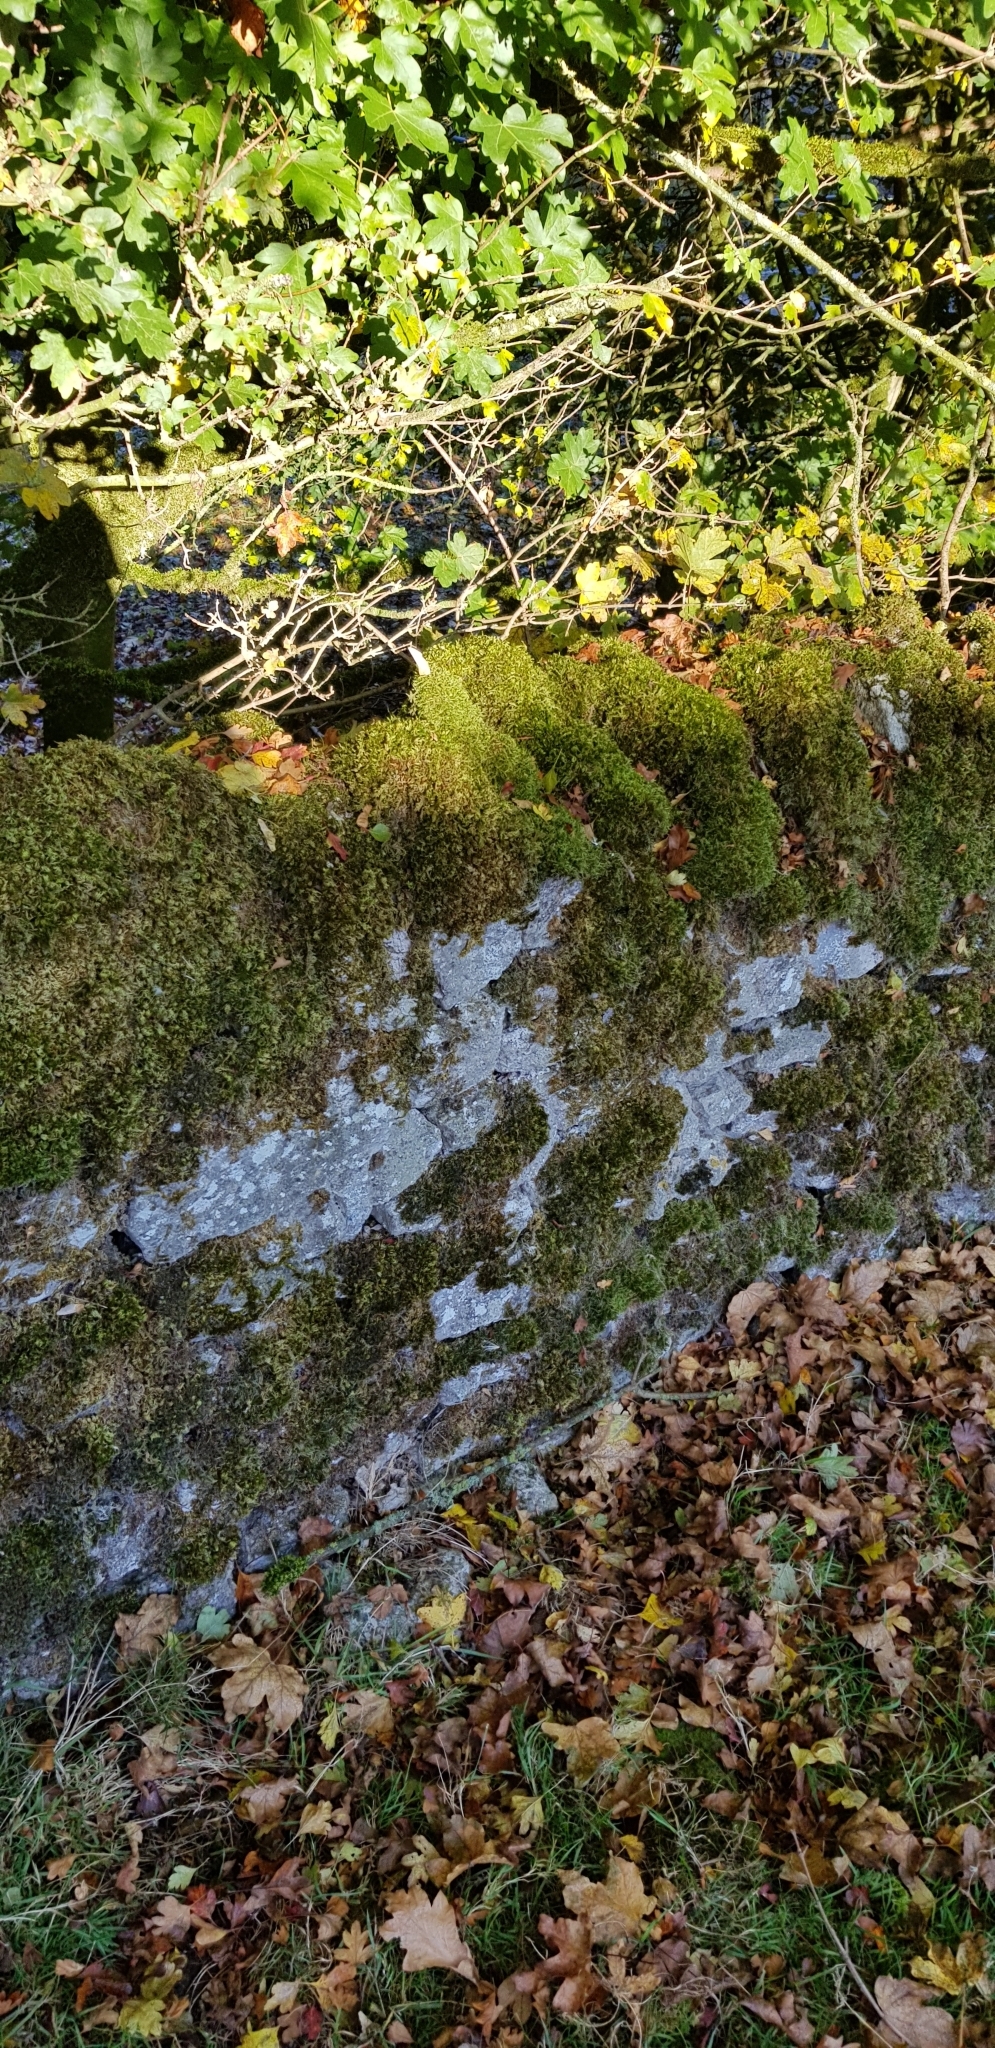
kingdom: Plantae
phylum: Bryophyta
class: Bryopsida
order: Hypnales
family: Brachytheciaceae
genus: Homalothecium
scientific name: Homalothecium sericeum
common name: Silky wall feather-moss
